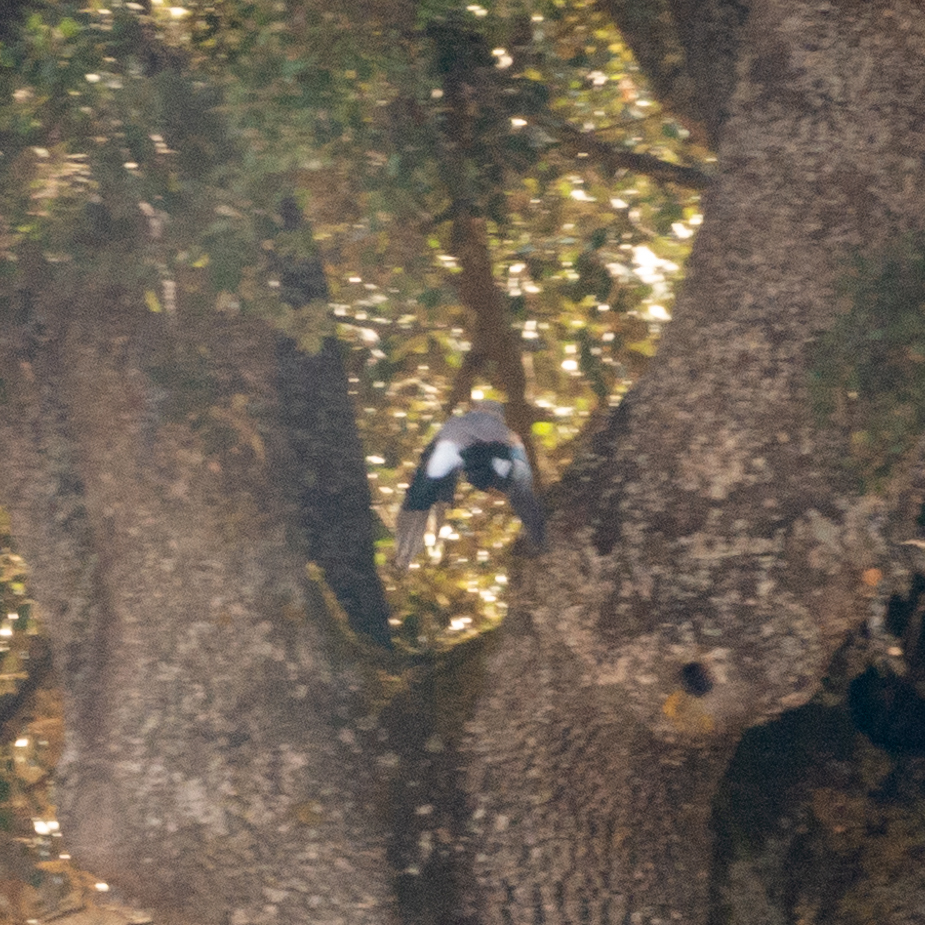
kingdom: Animalia
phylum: Chordata
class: Aves
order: Passeriformes
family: Corvidae
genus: Garrulus
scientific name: Garrulus glandarius
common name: Eurasian jay
